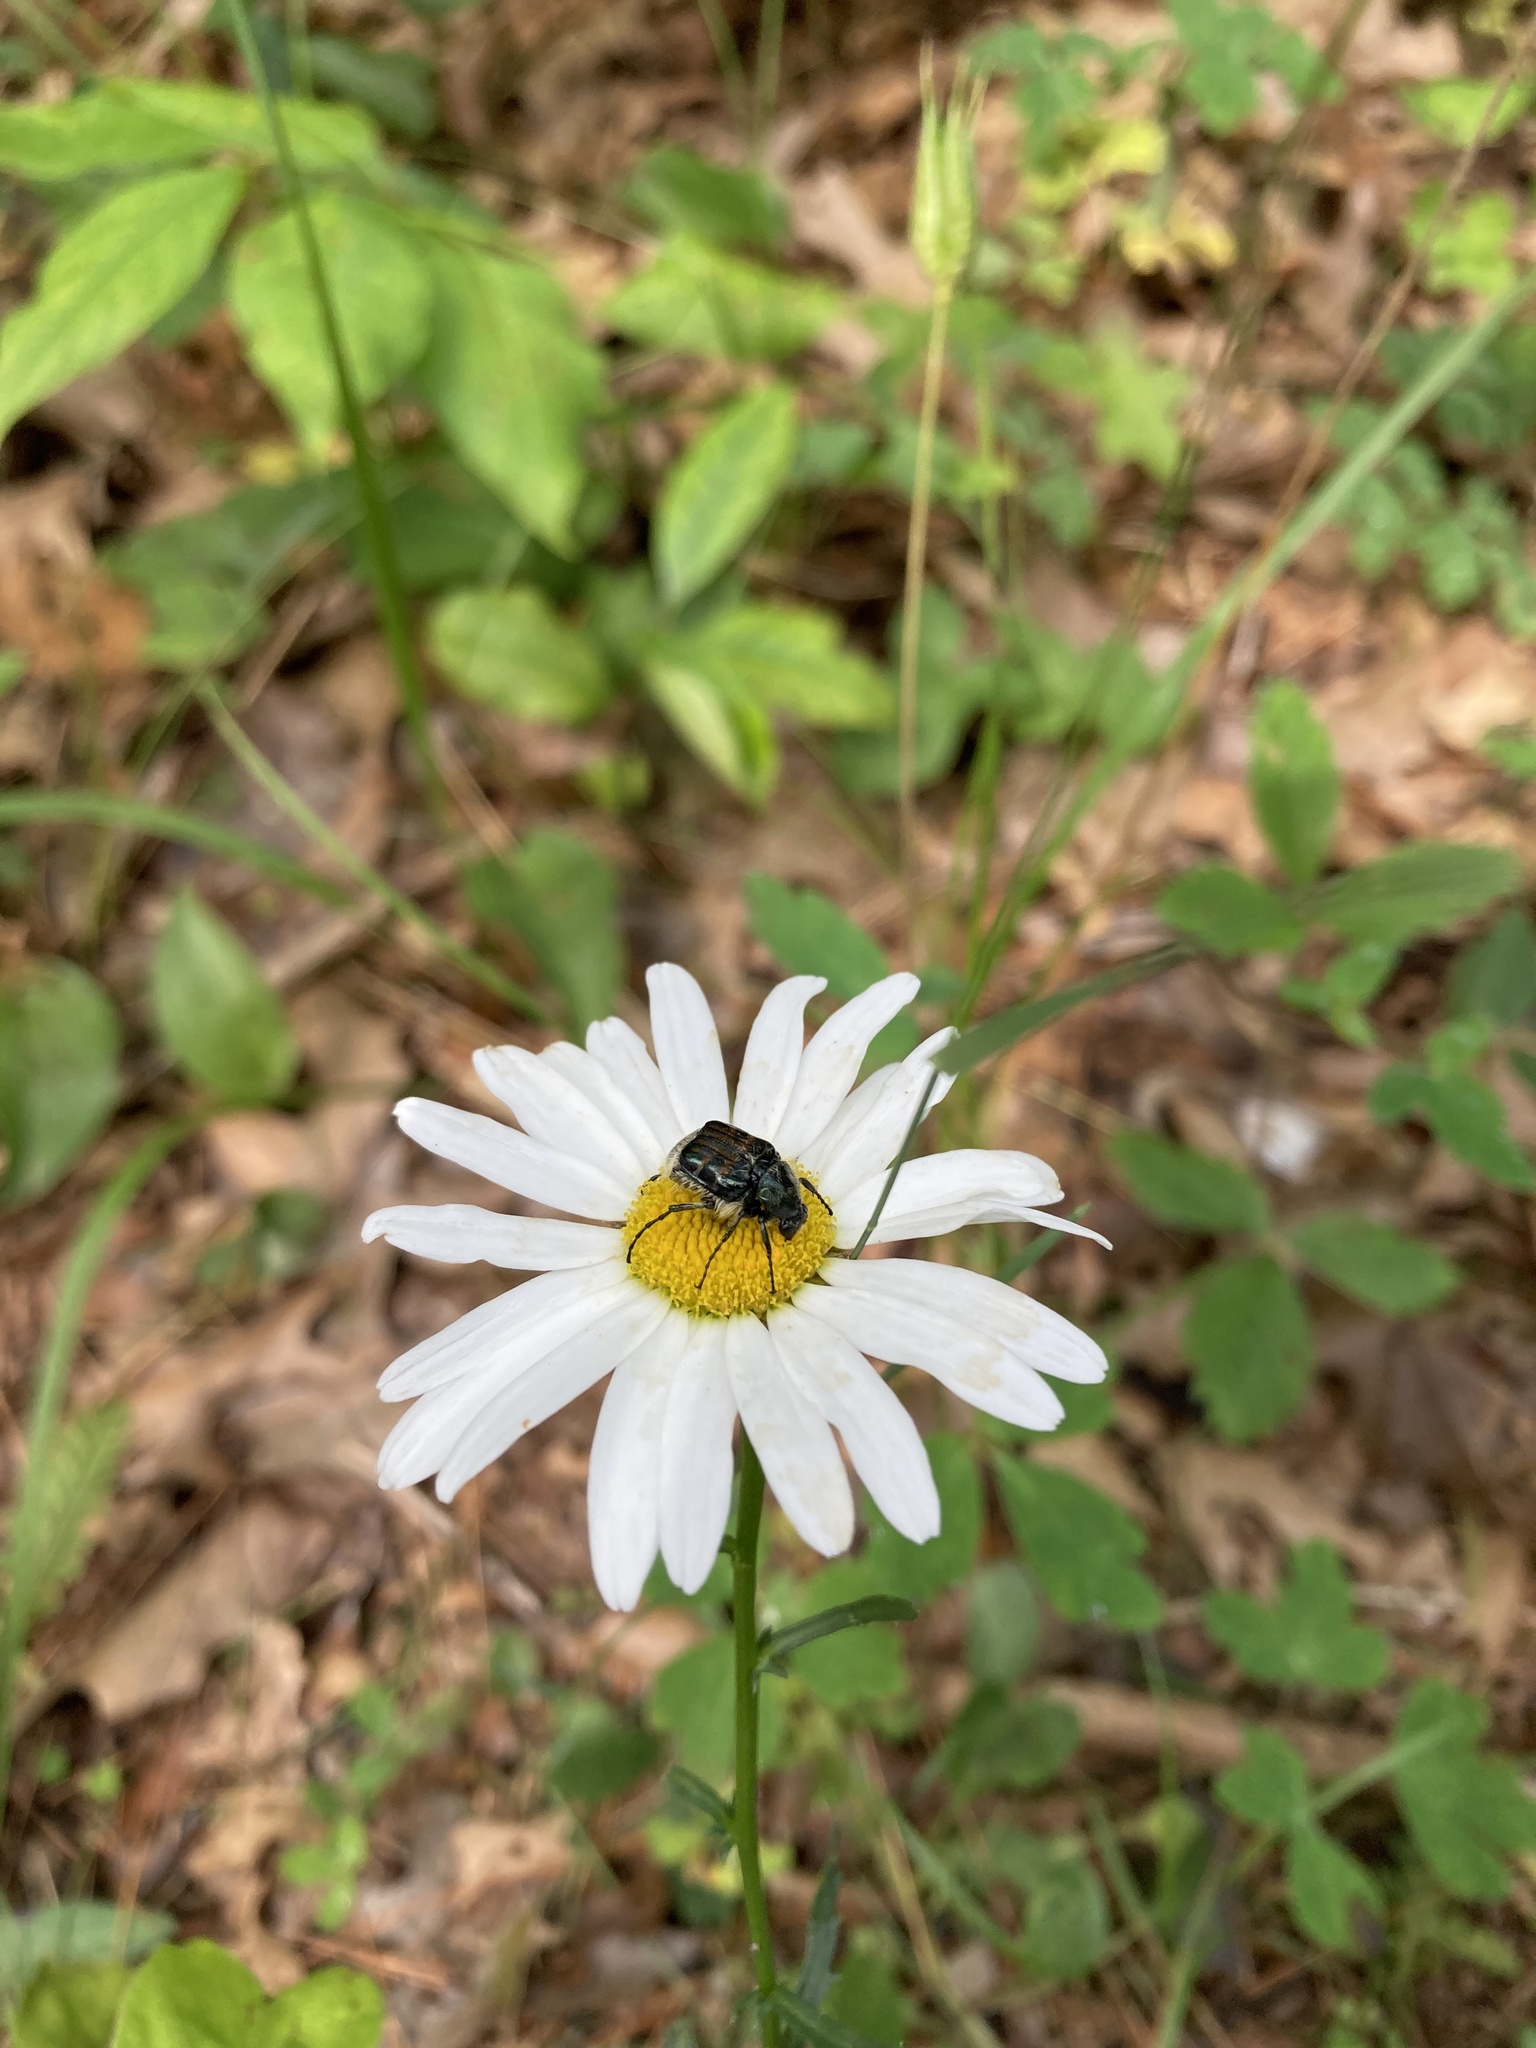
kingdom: Animalia
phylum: Arthropoda
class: Insecta
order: Coleoptera
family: Scarabaeidae
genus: Trichiotinus
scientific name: Trichiotinus affinis
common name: Hairy flower scarab
